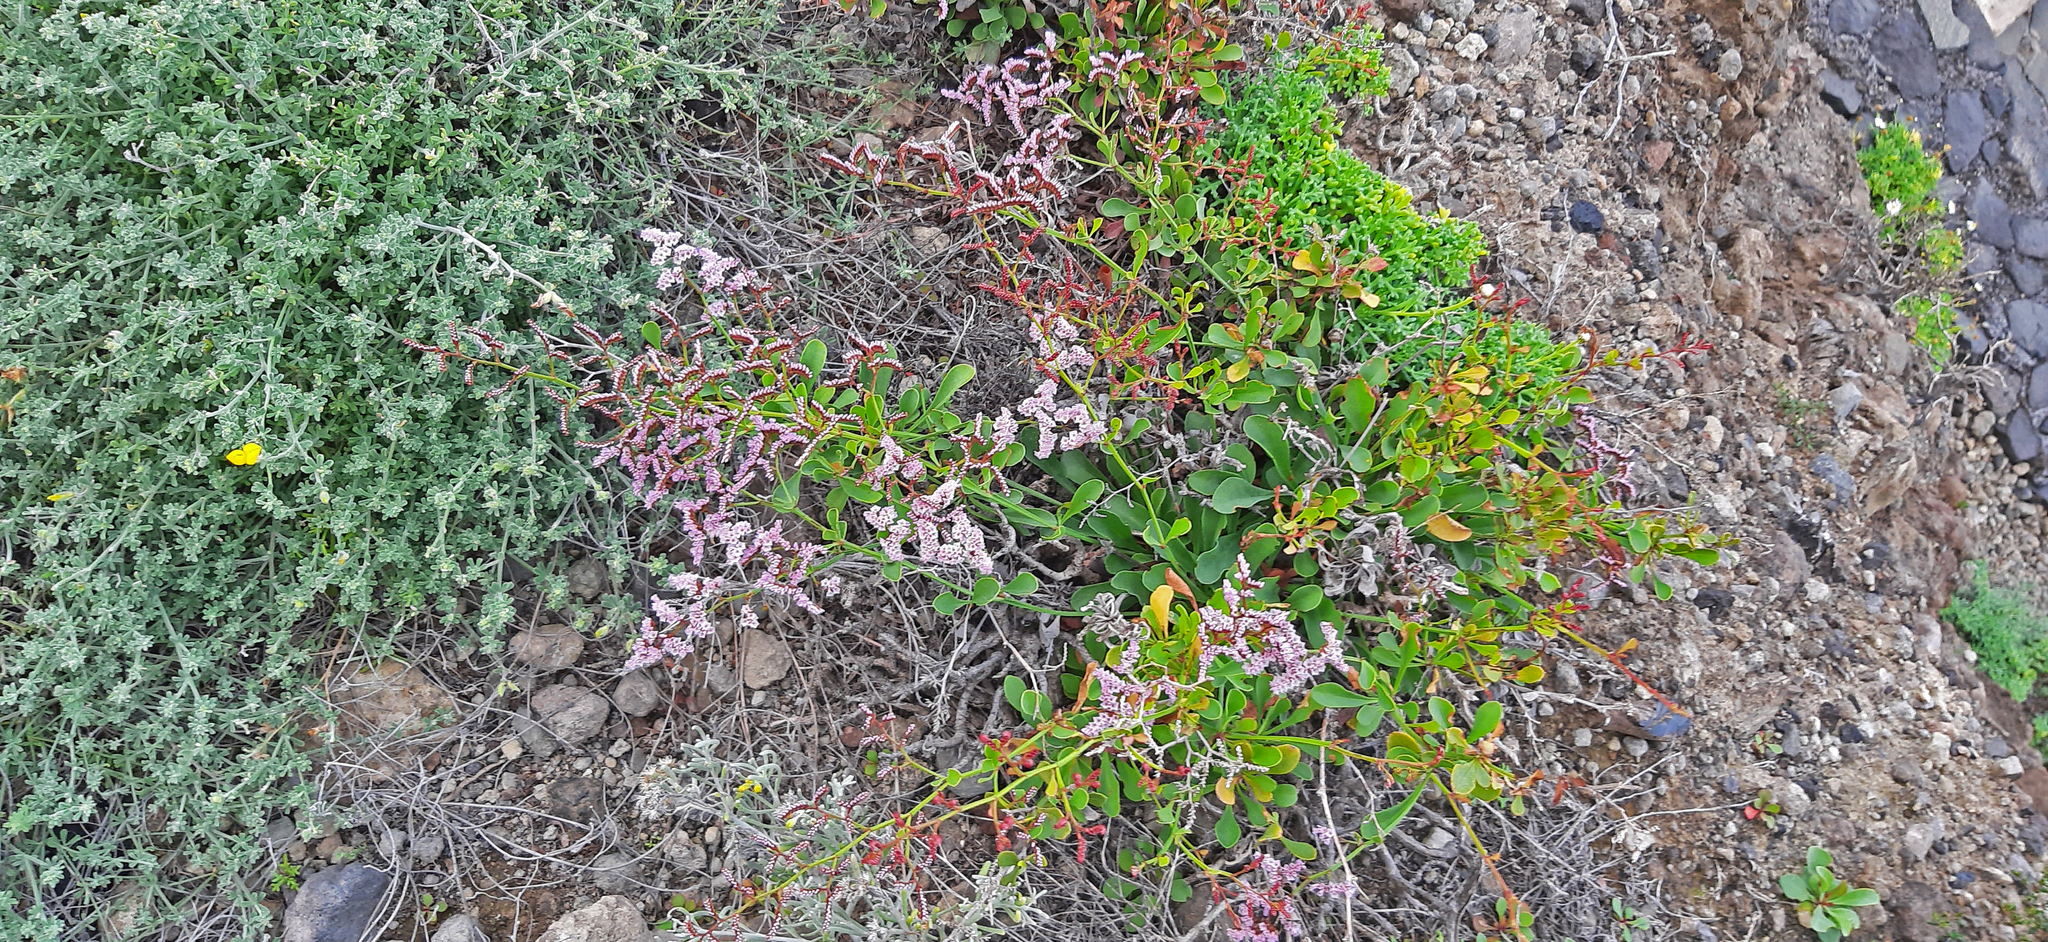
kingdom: Plantae
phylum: Tracheophyta
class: Magnoliopsida
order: Caryophyllales
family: Plumbaginaceae
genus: Limonium
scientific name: Limonium pectinatum
